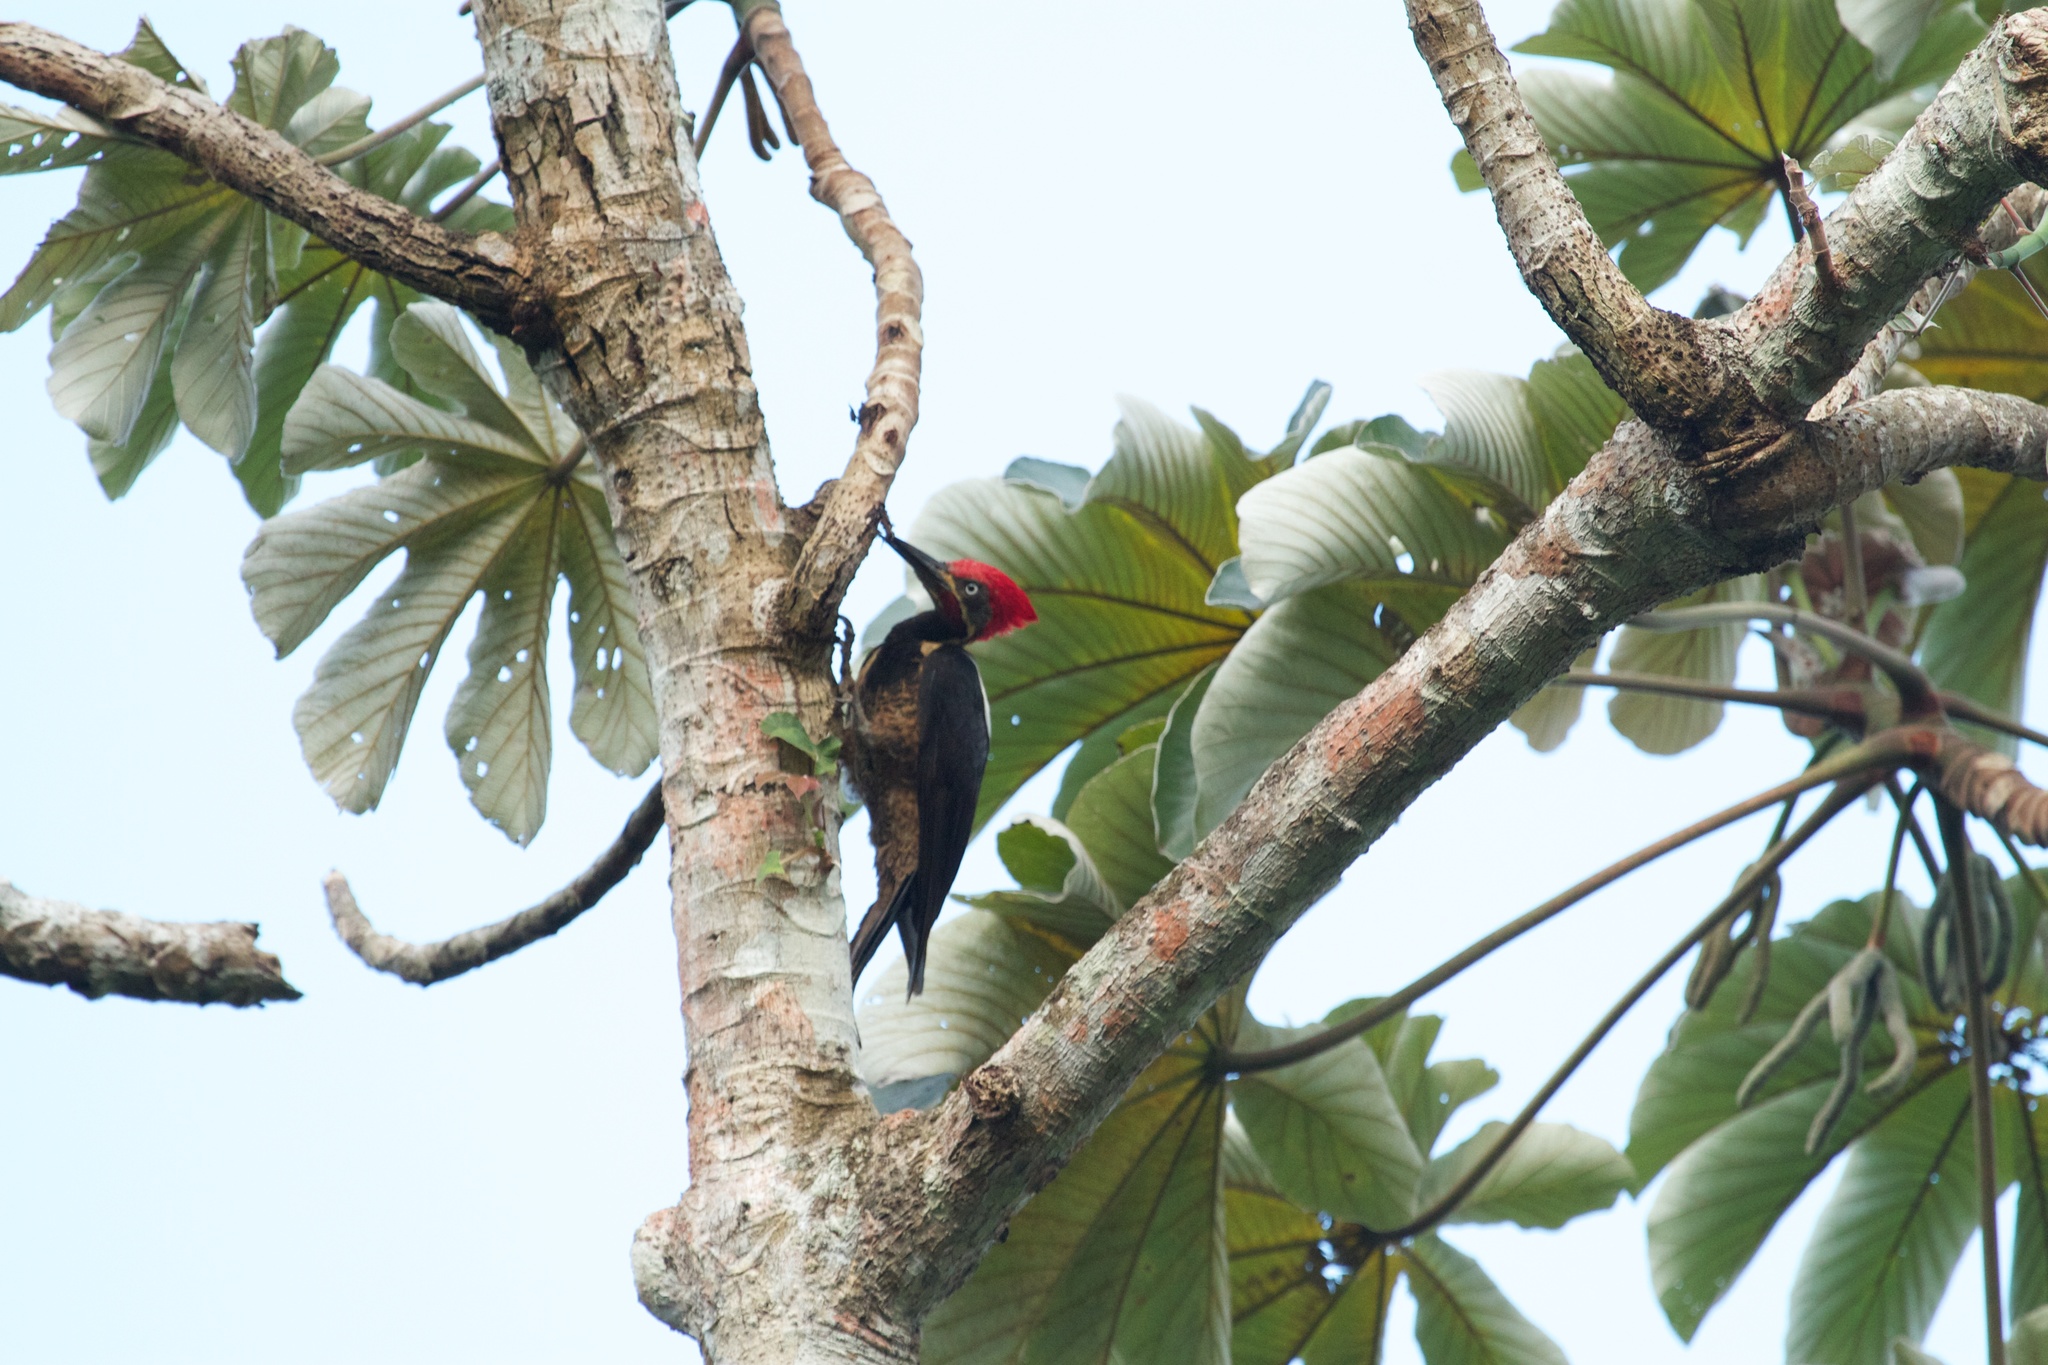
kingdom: Animalia
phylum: Chordata
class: Aves
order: Piciformes
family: Picidae
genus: Dryocopus
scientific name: Dryocopus lineatus
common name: Lineated woodpecker
